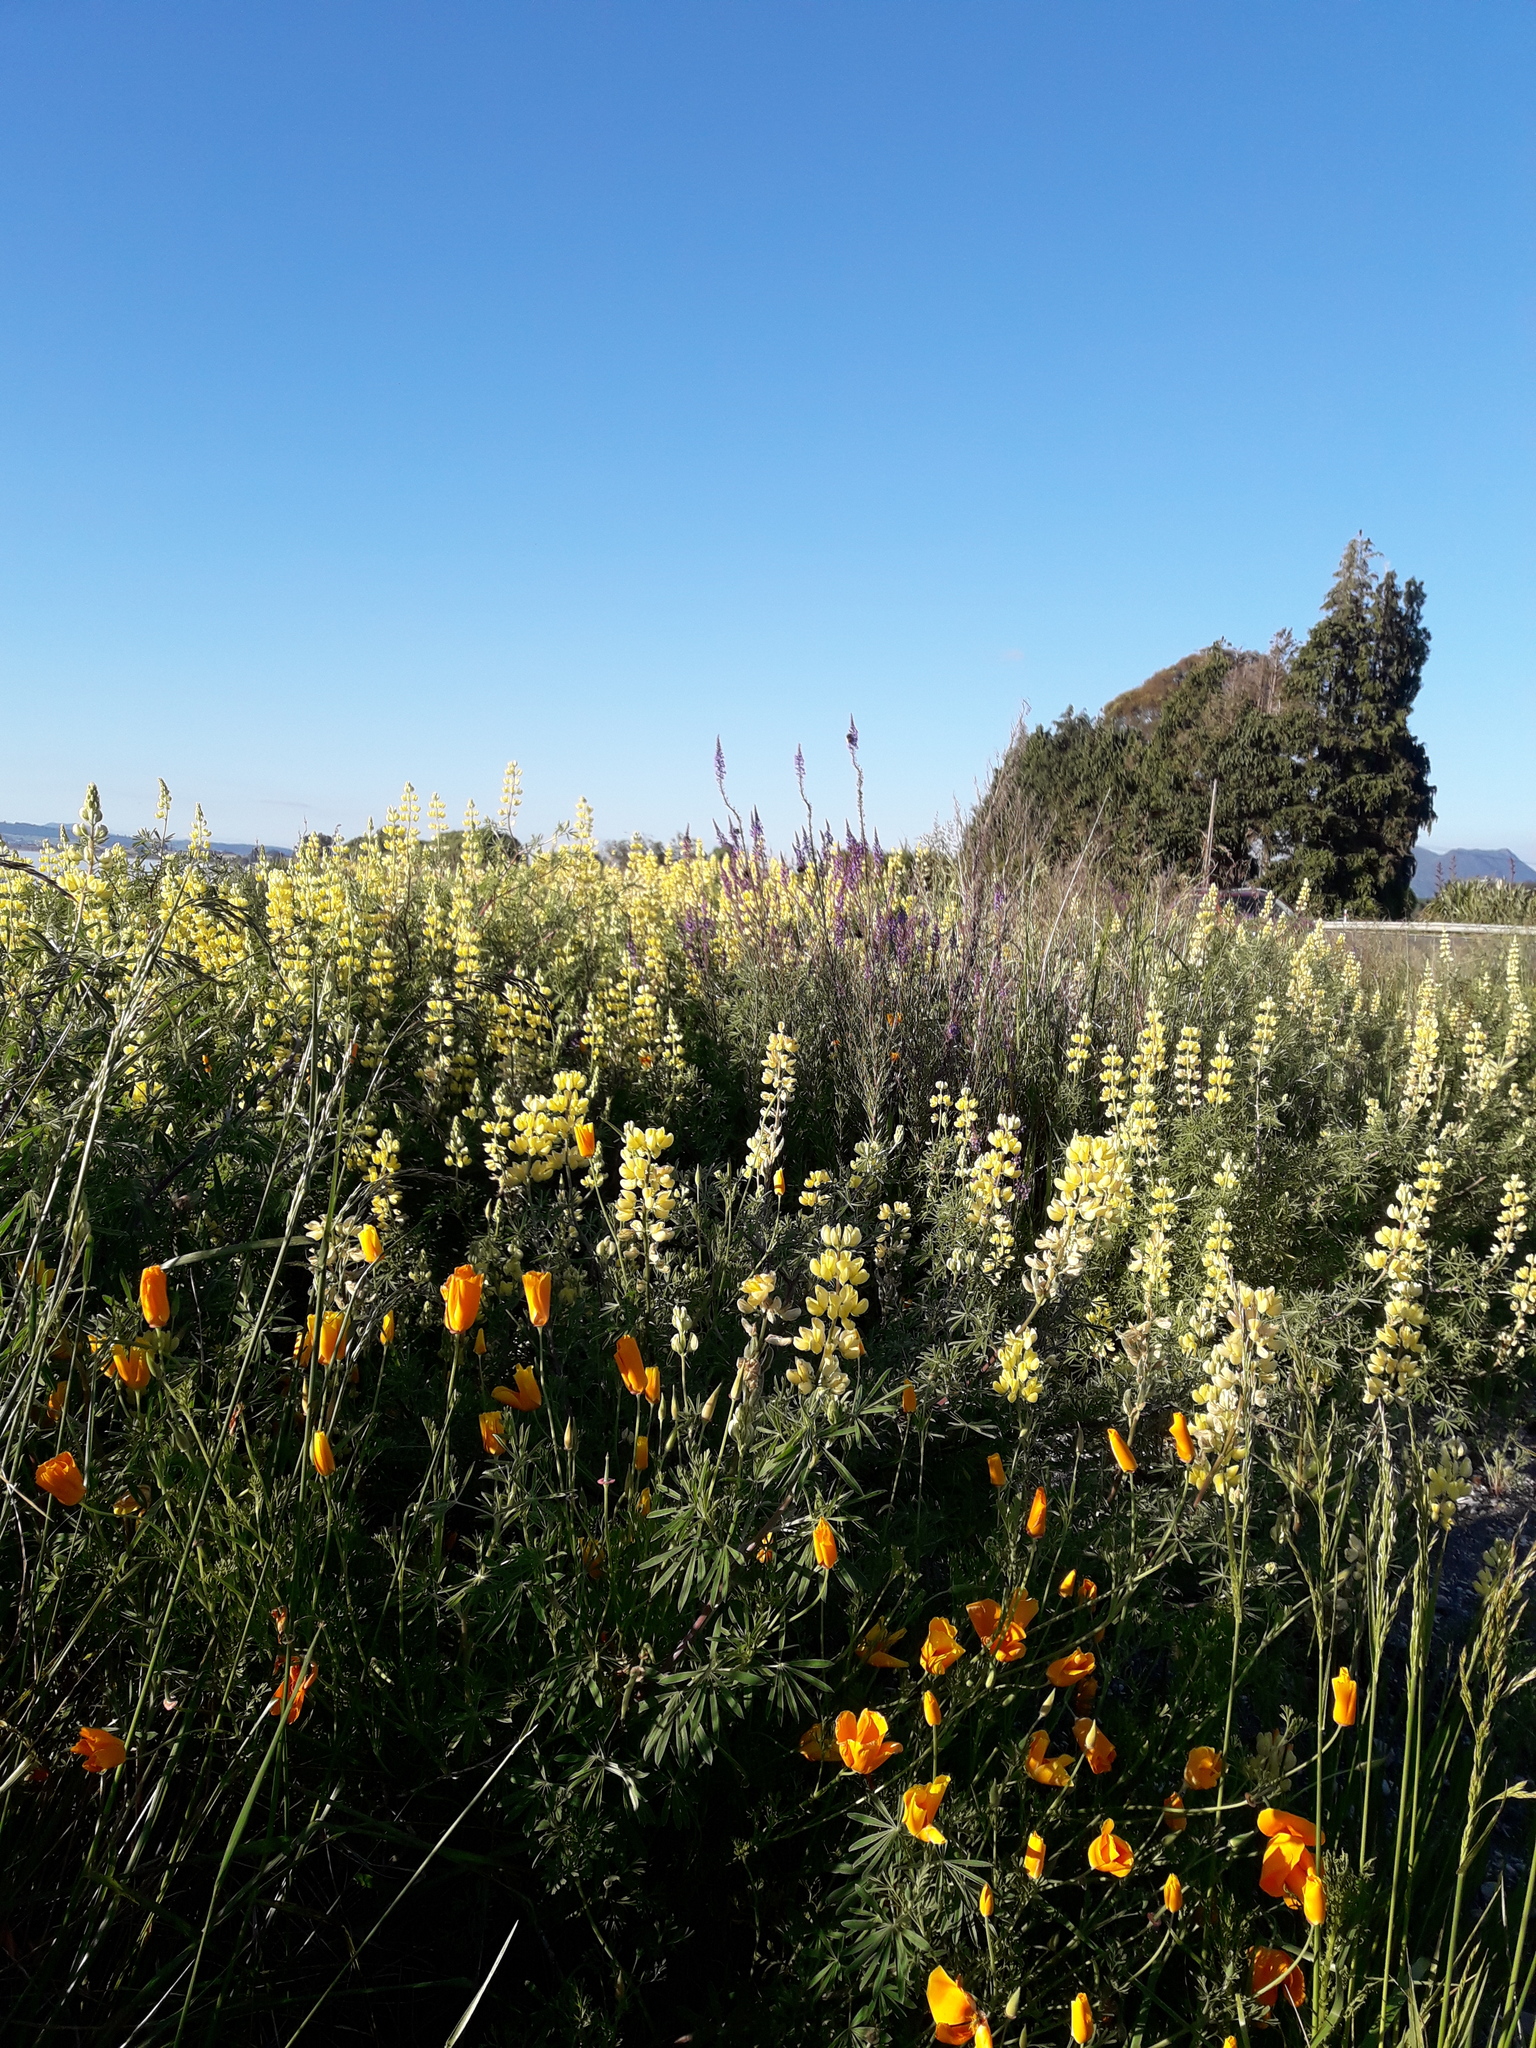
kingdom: Plantae
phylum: Tracheophyta
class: Magnoliopsida
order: Fabales
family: Fabaceae
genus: Lupinus
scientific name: Lupinus arboreus
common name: Yellow bush lupine
